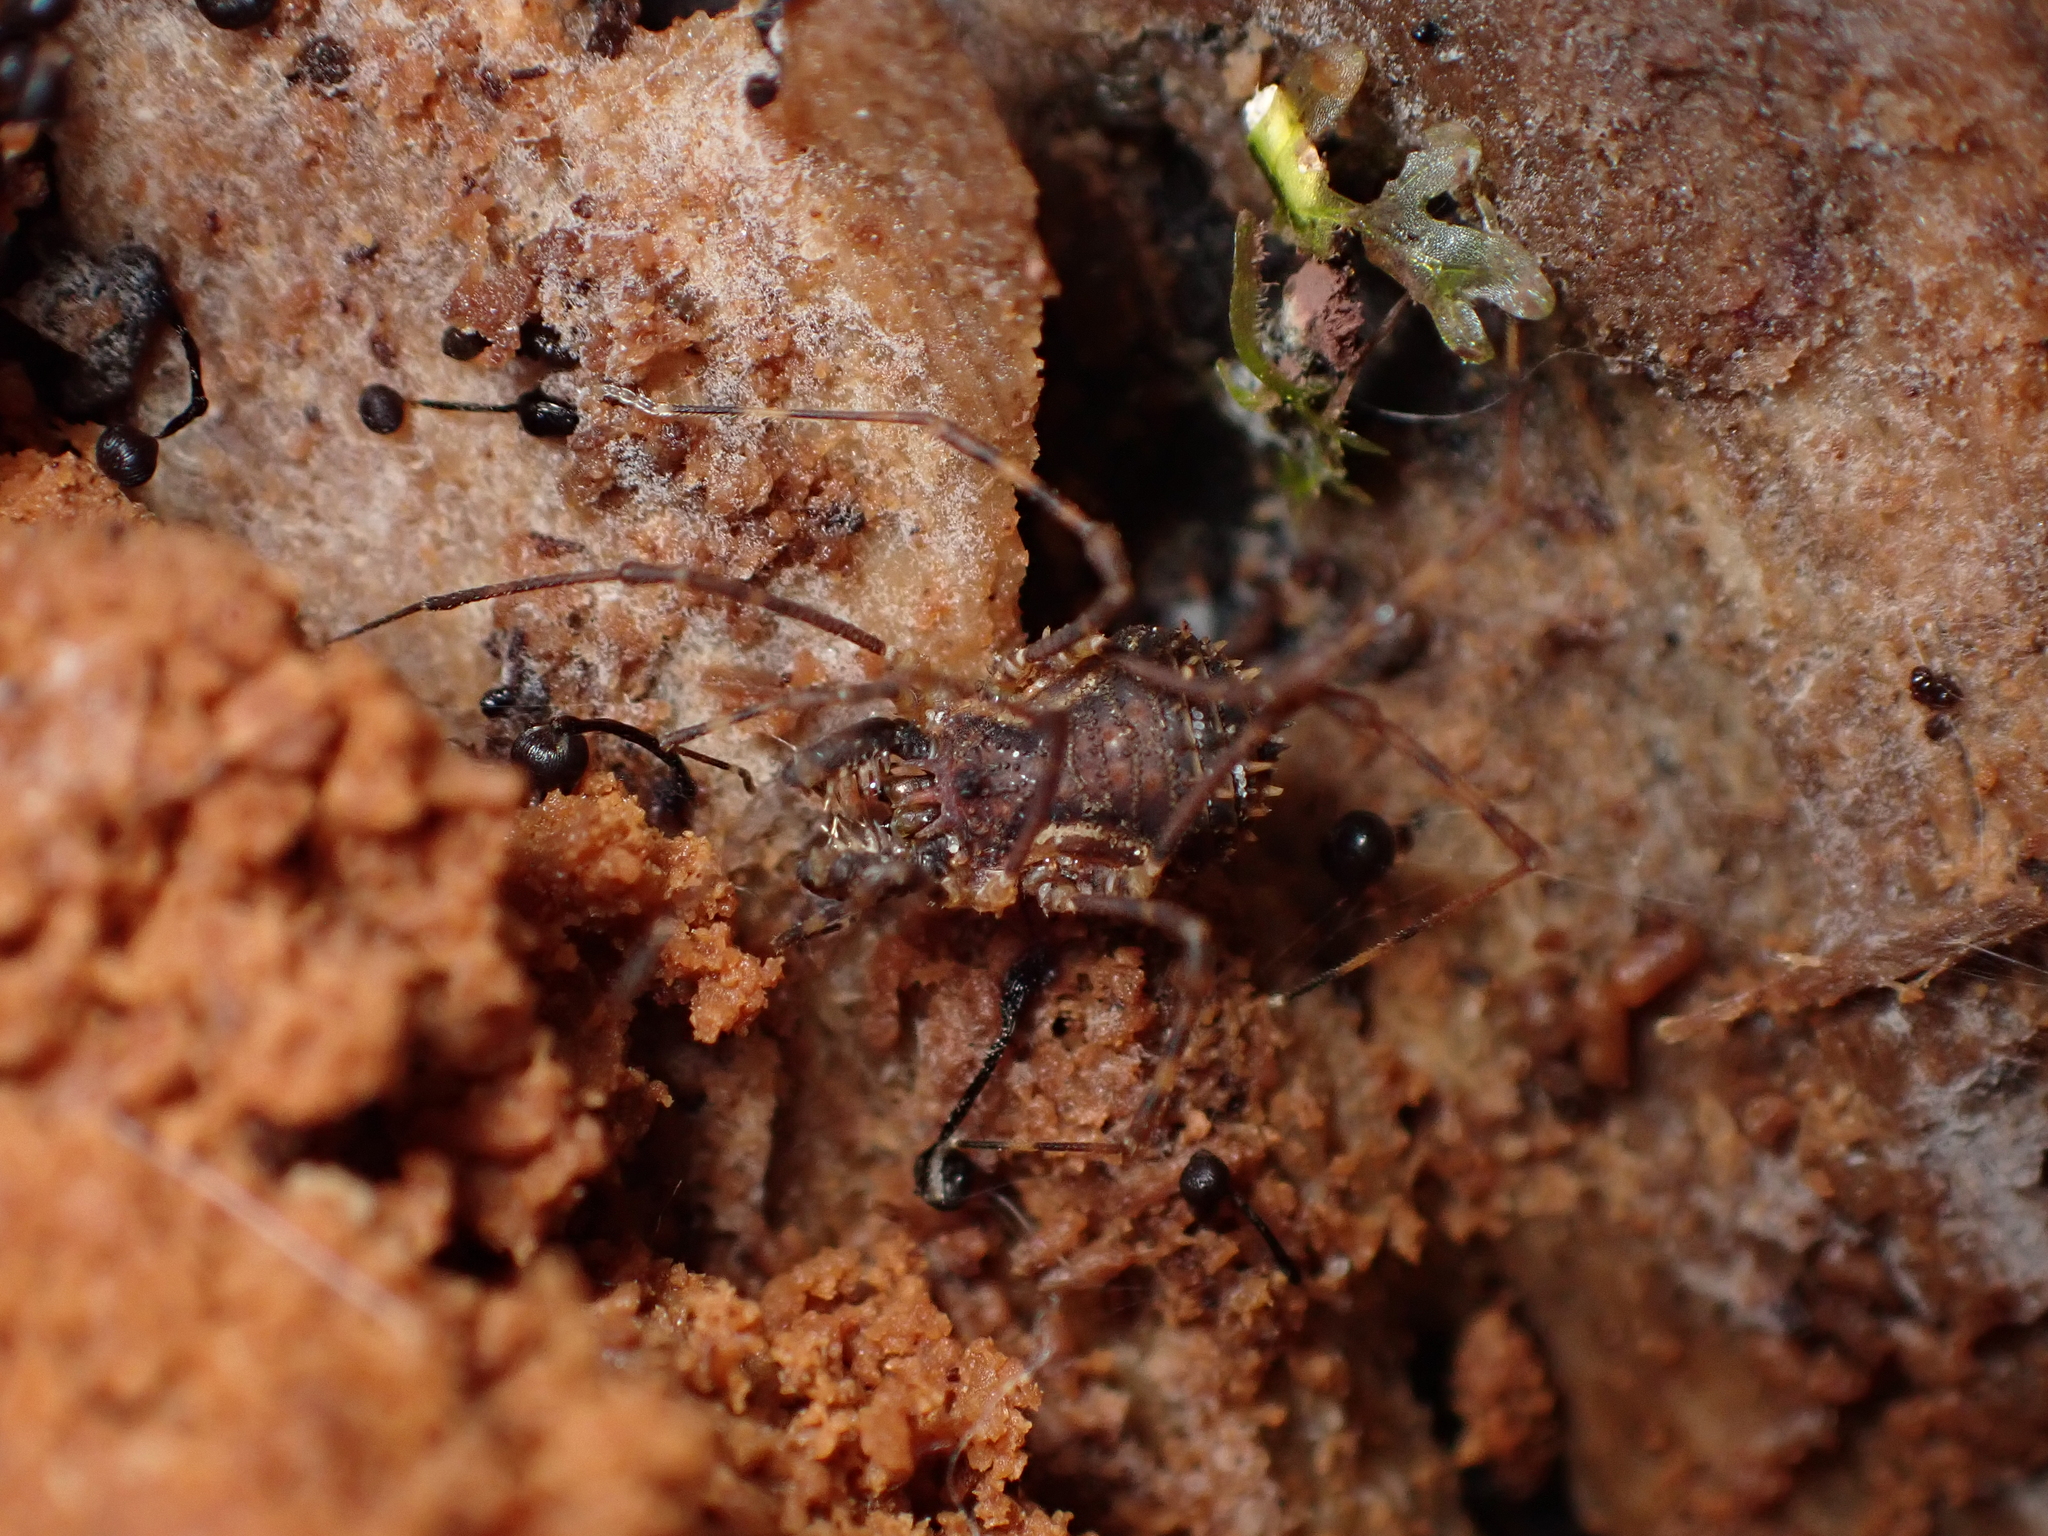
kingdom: Animalia
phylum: Arthropoda
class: Arachnida
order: Opiliones
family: Triaenonychidae
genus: Algidia
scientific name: Algidia interrupta
